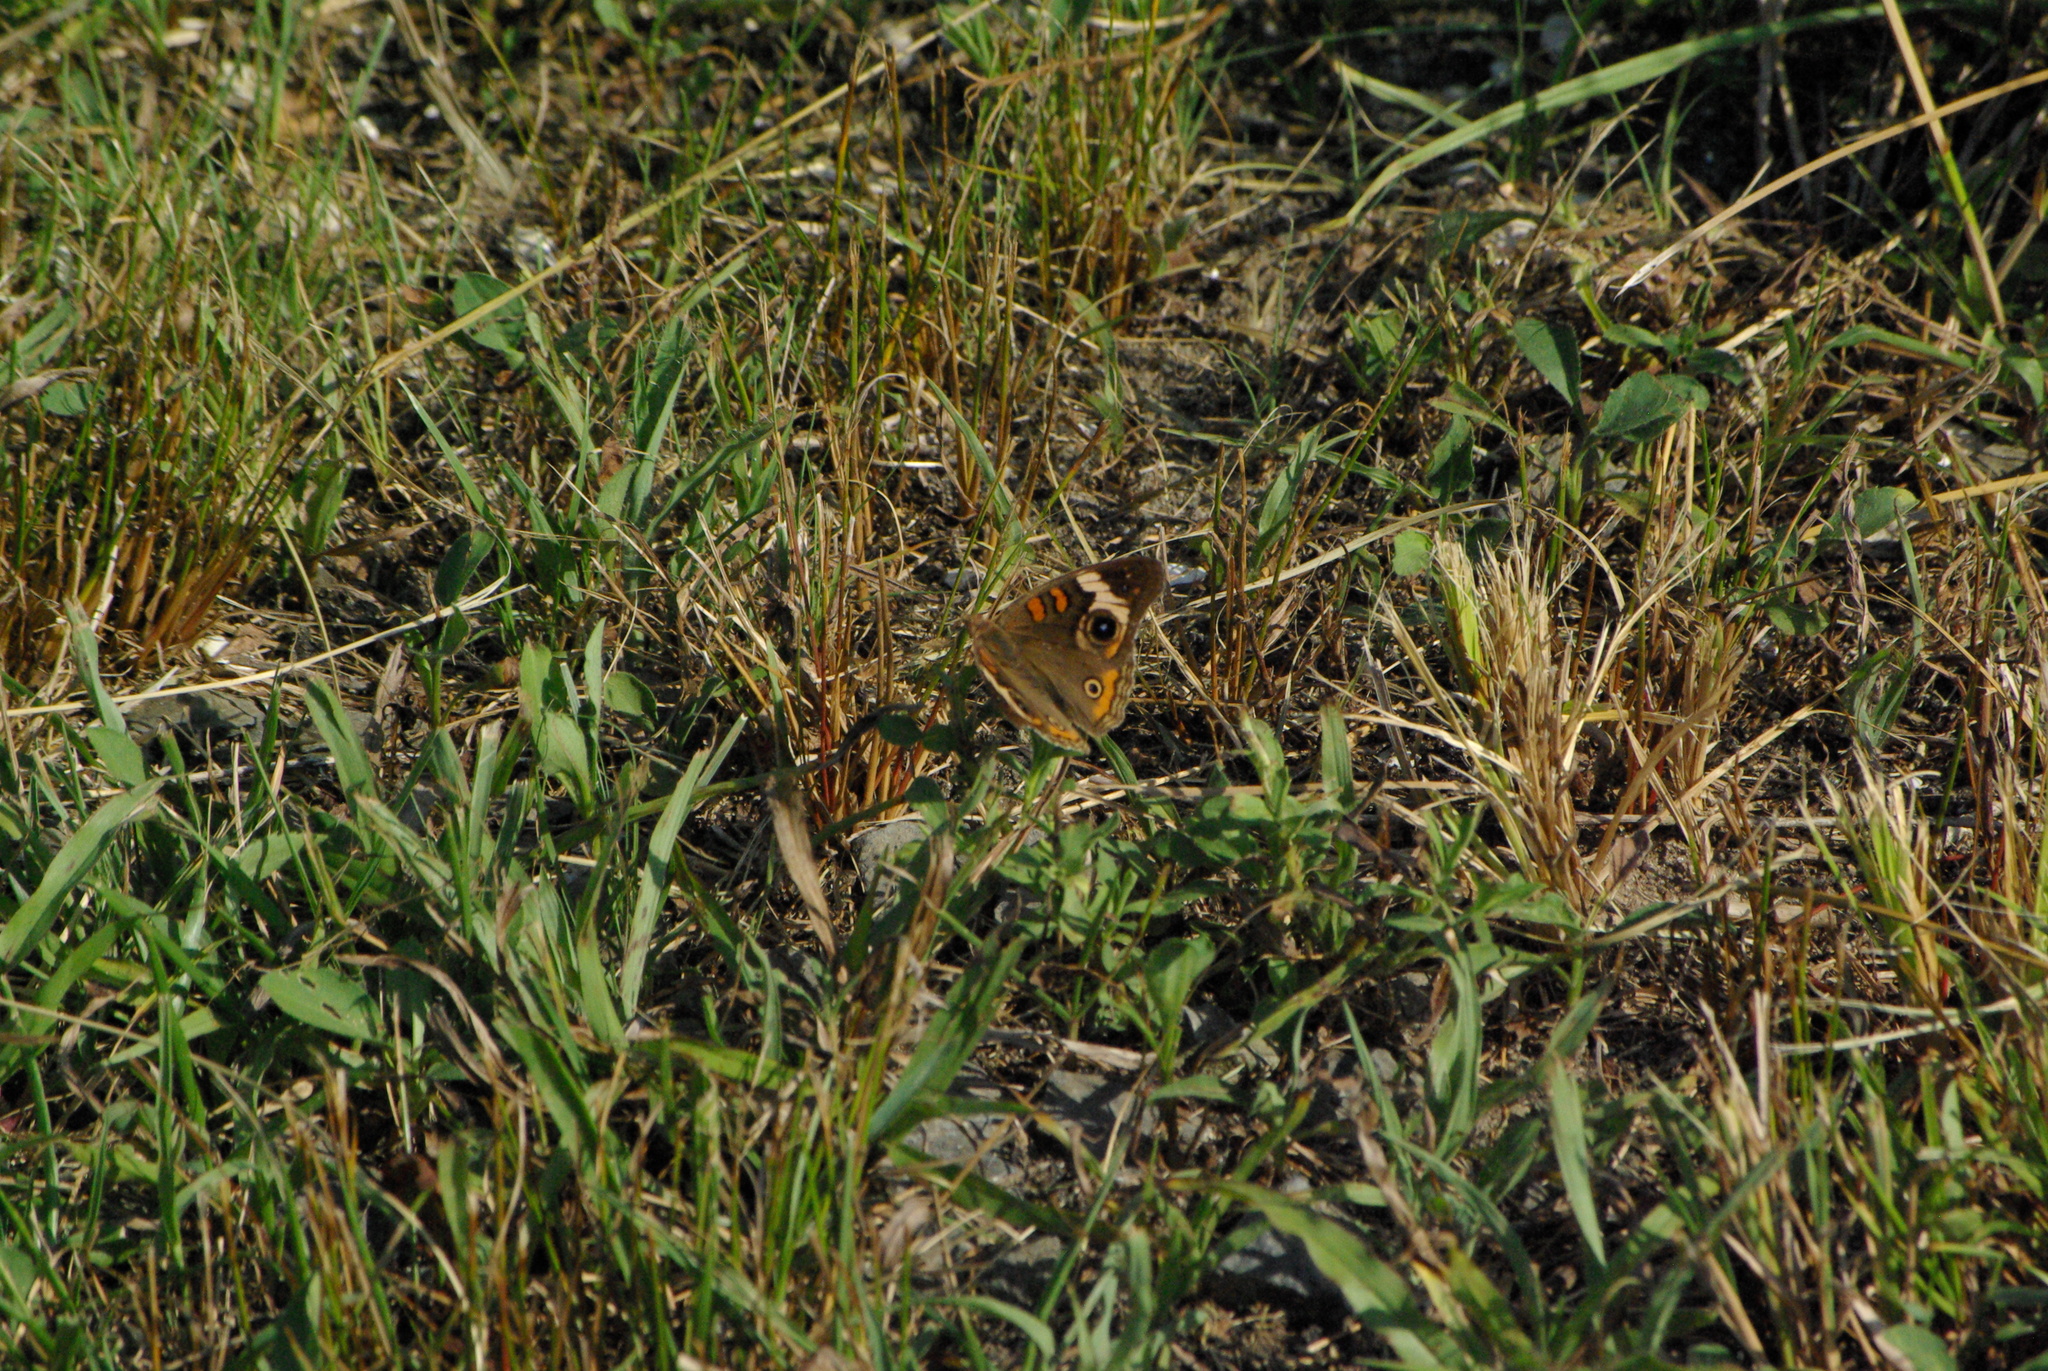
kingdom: Animalia
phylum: Arthropoda
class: Insecta
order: Lepidoptera
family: Nymphalidae
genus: Junonia
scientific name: Junonia coenia
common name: Common buckeye
